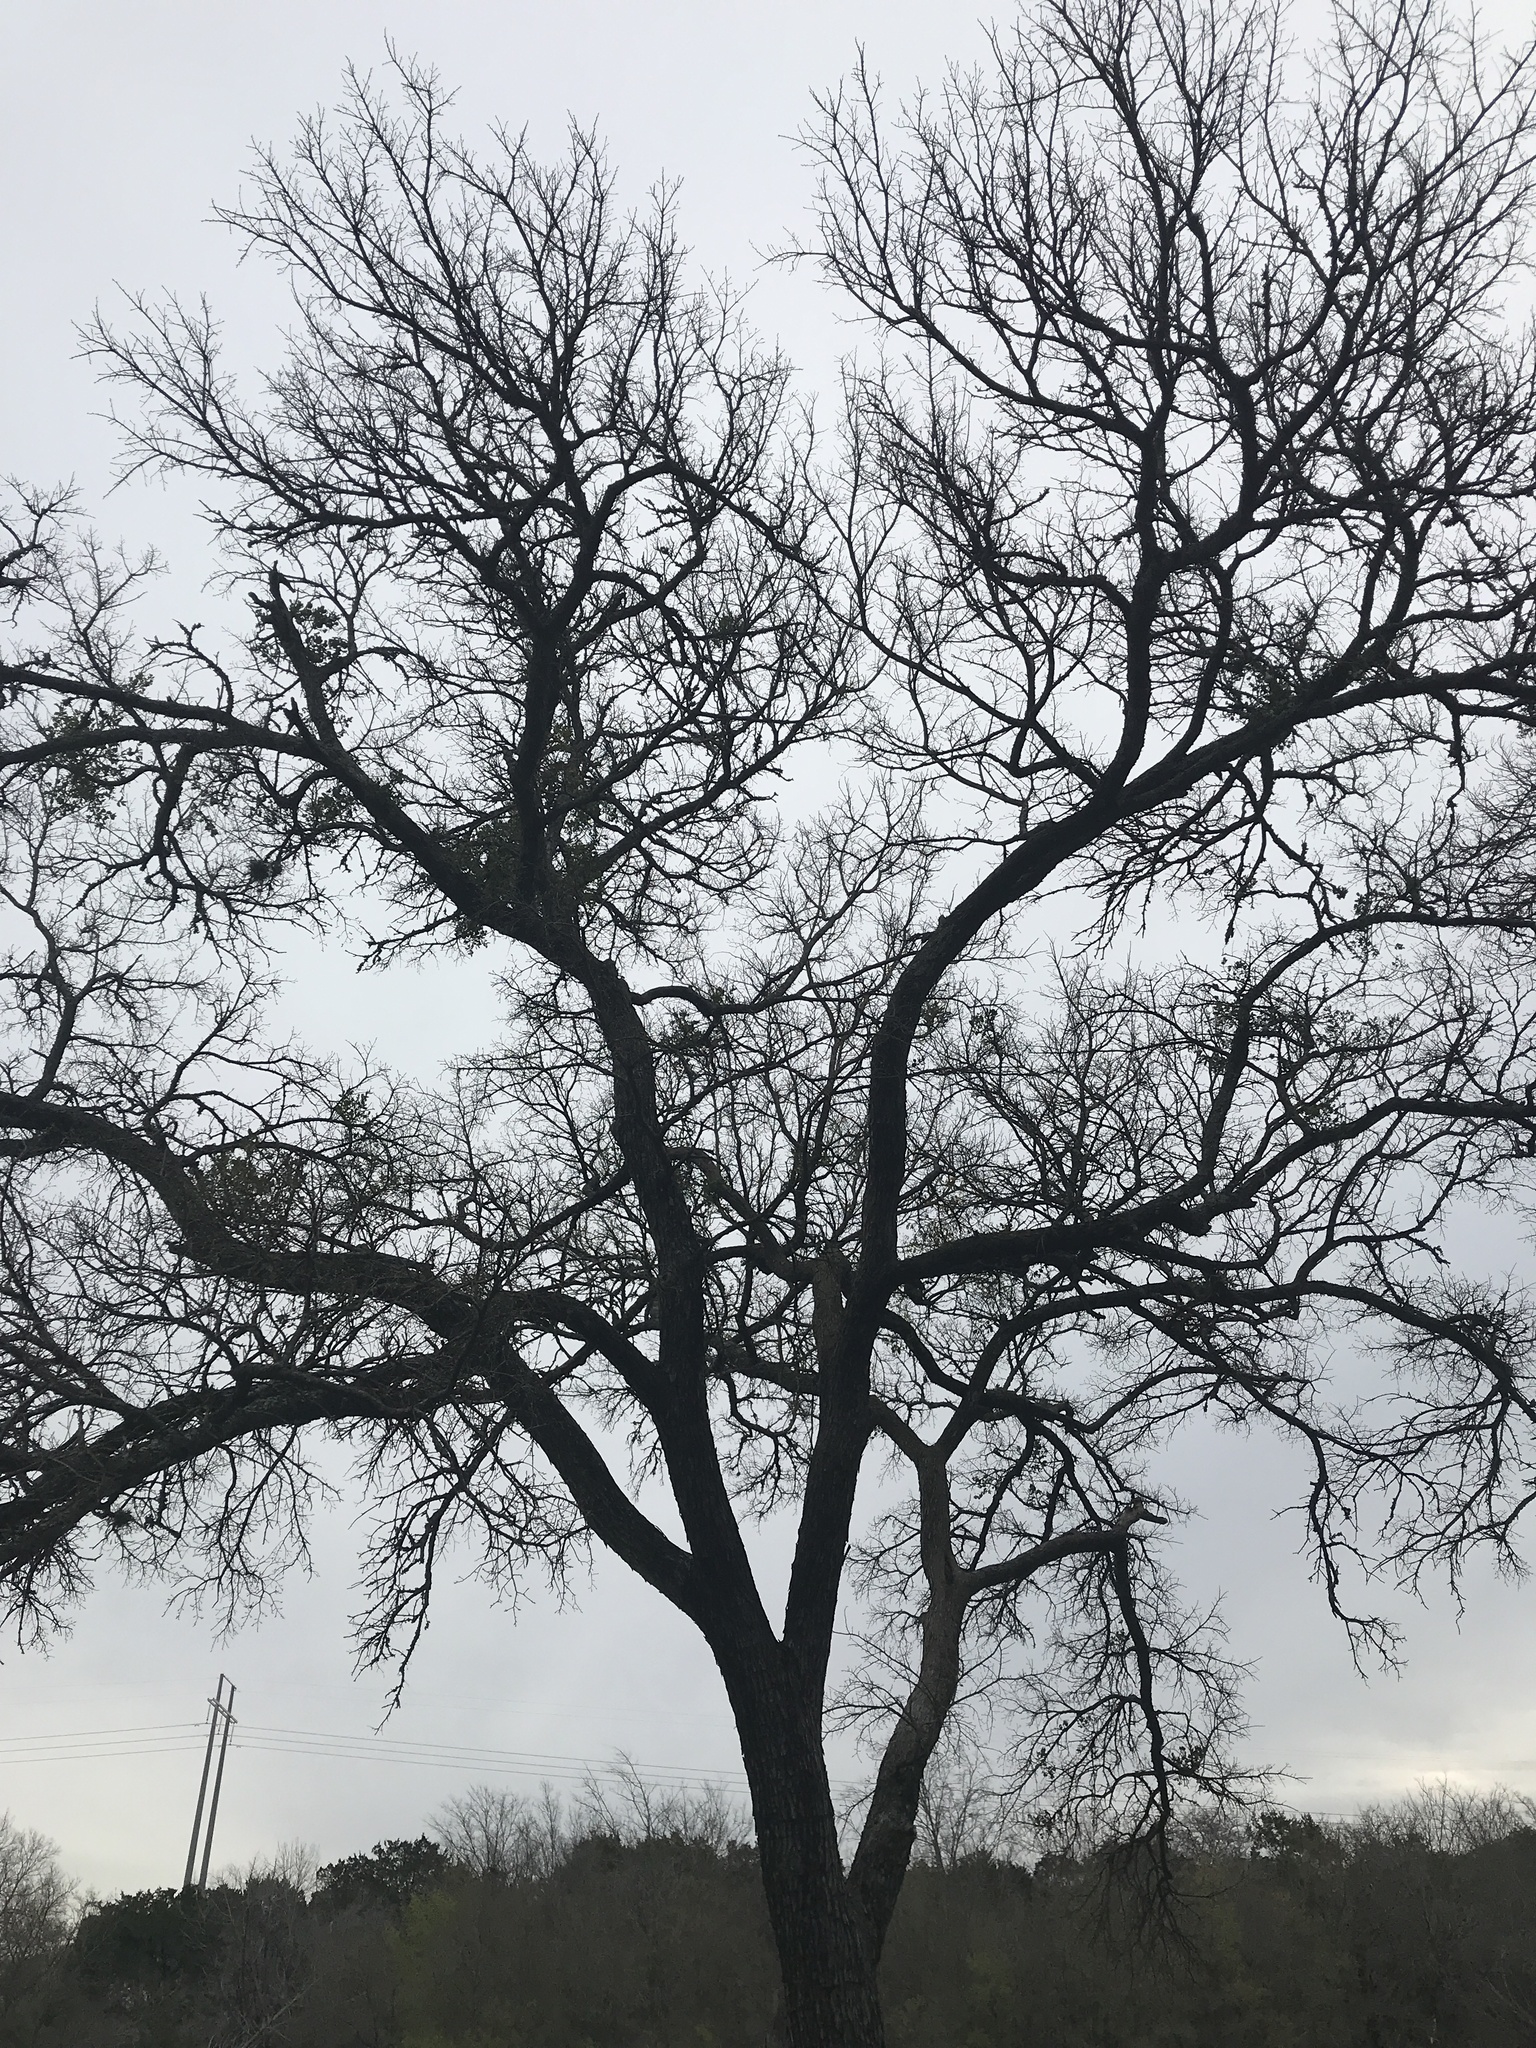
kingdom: Plantae
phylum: Tracheophyta
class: Magnoliopsida
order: Rosales
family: Ulmaceae
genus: Ulmus
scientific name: Ulmus crassifolia
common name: Basket elm
